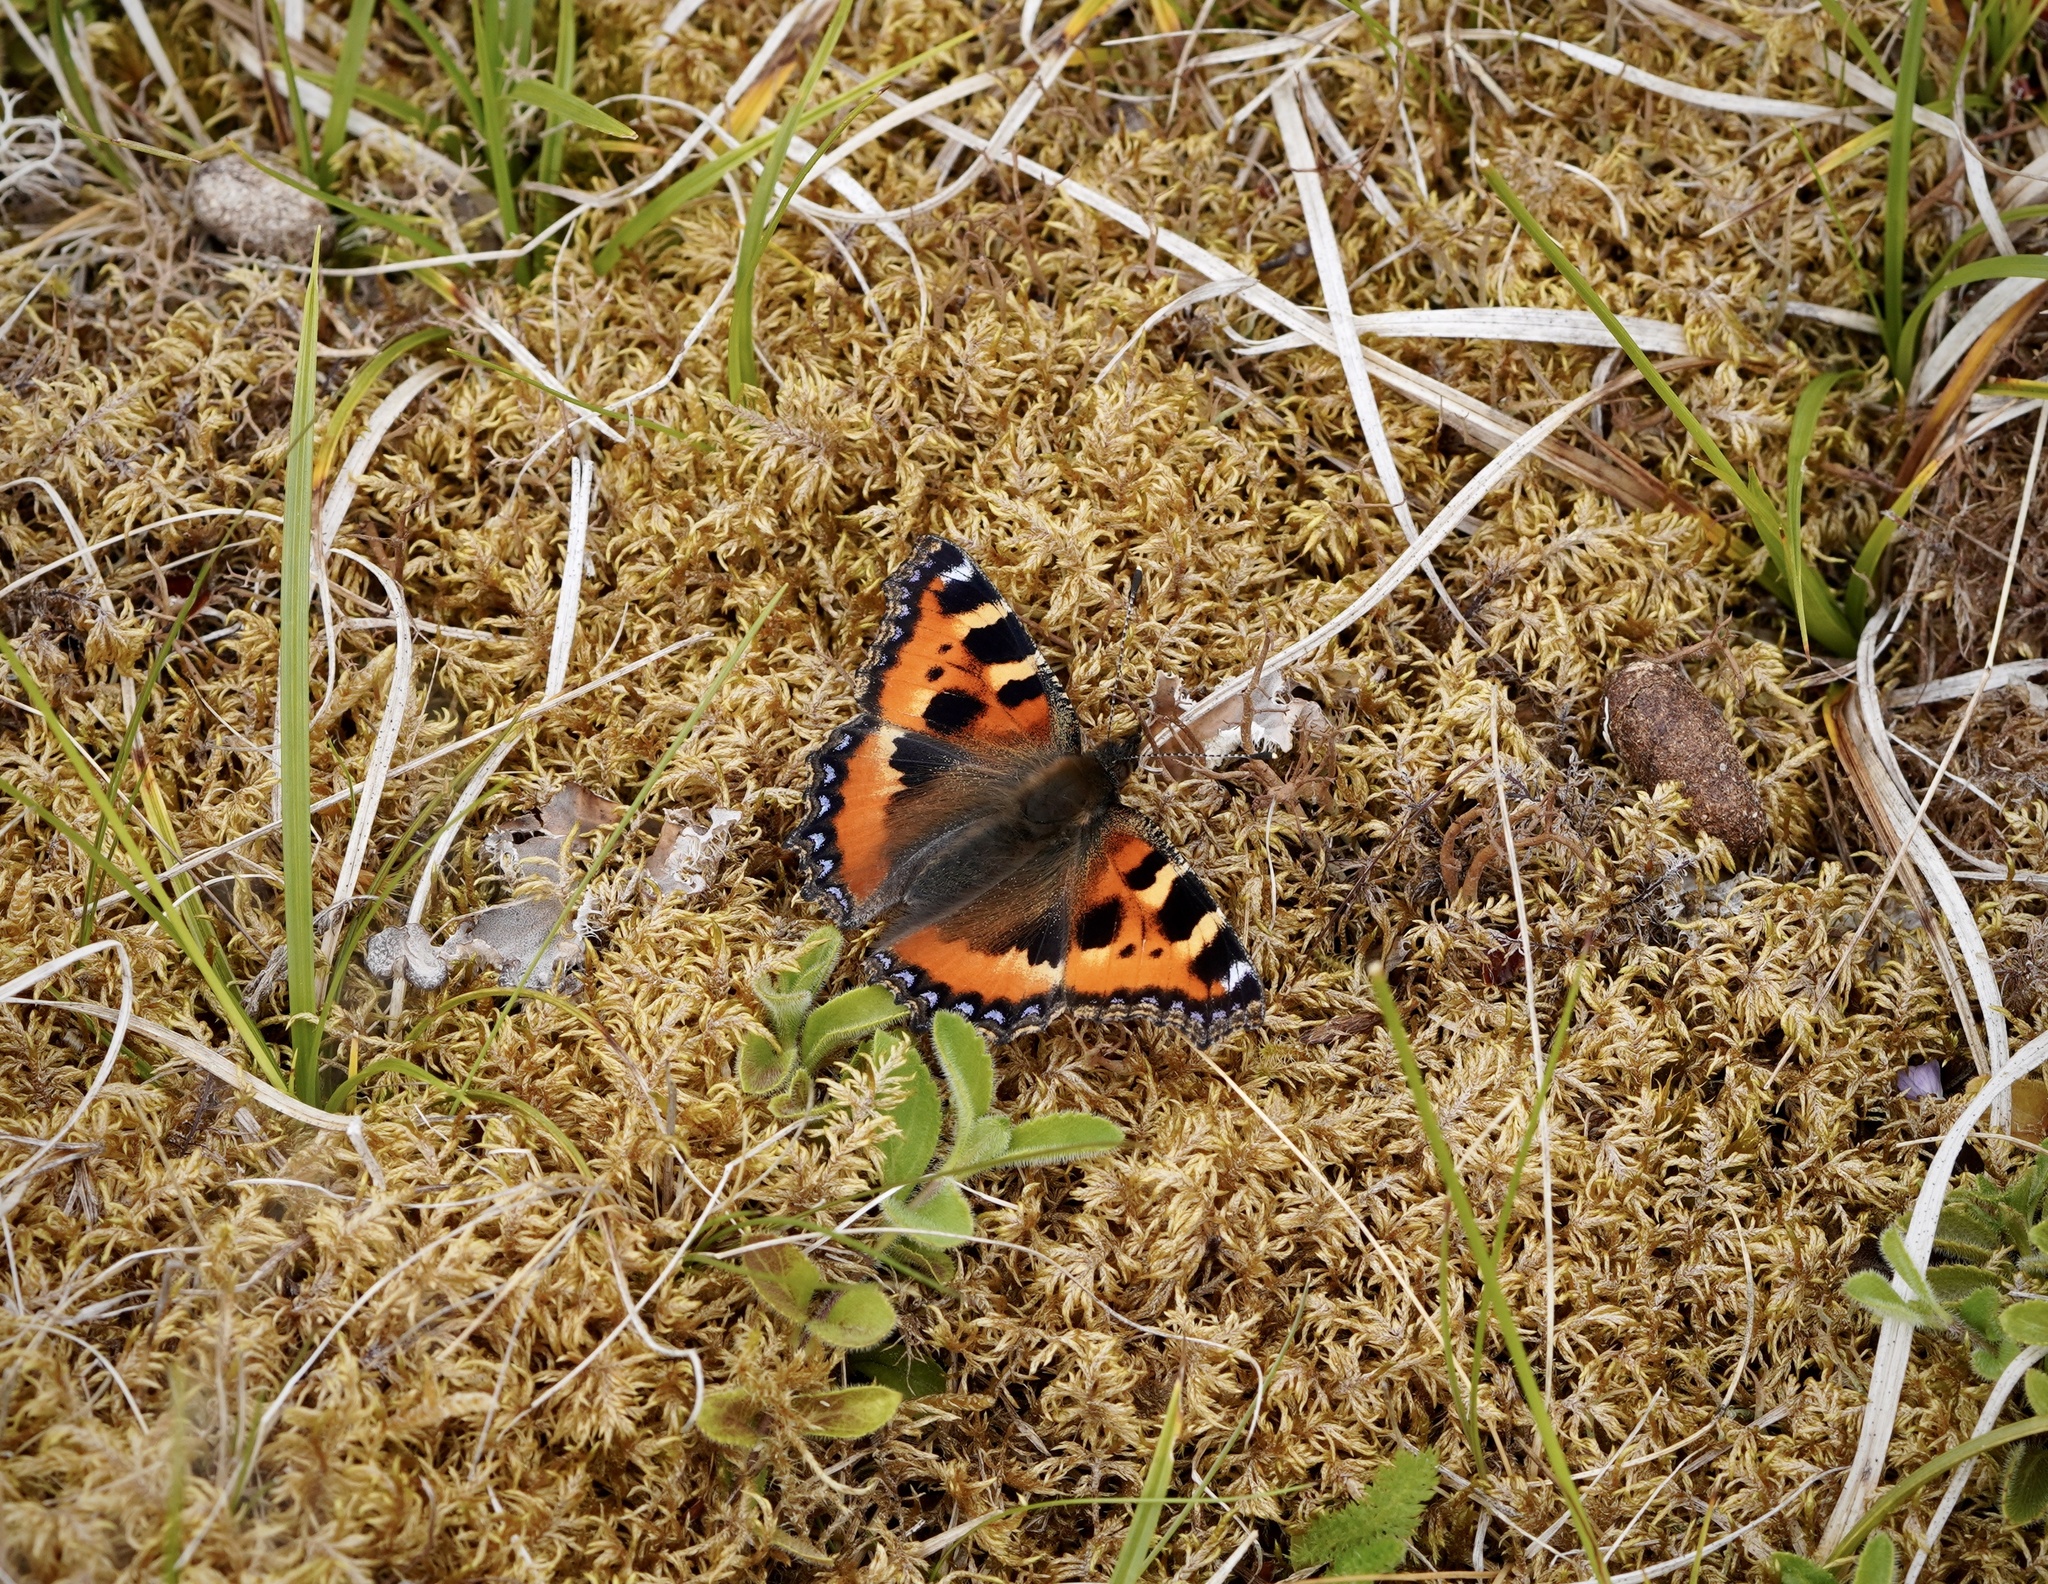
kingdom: Animalia
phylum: Arthropoda
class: Insecta
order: Lepidoptera
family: Nymphalidae
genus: Aglais
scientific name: Aglais urticae
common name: Small tortoiseshell
